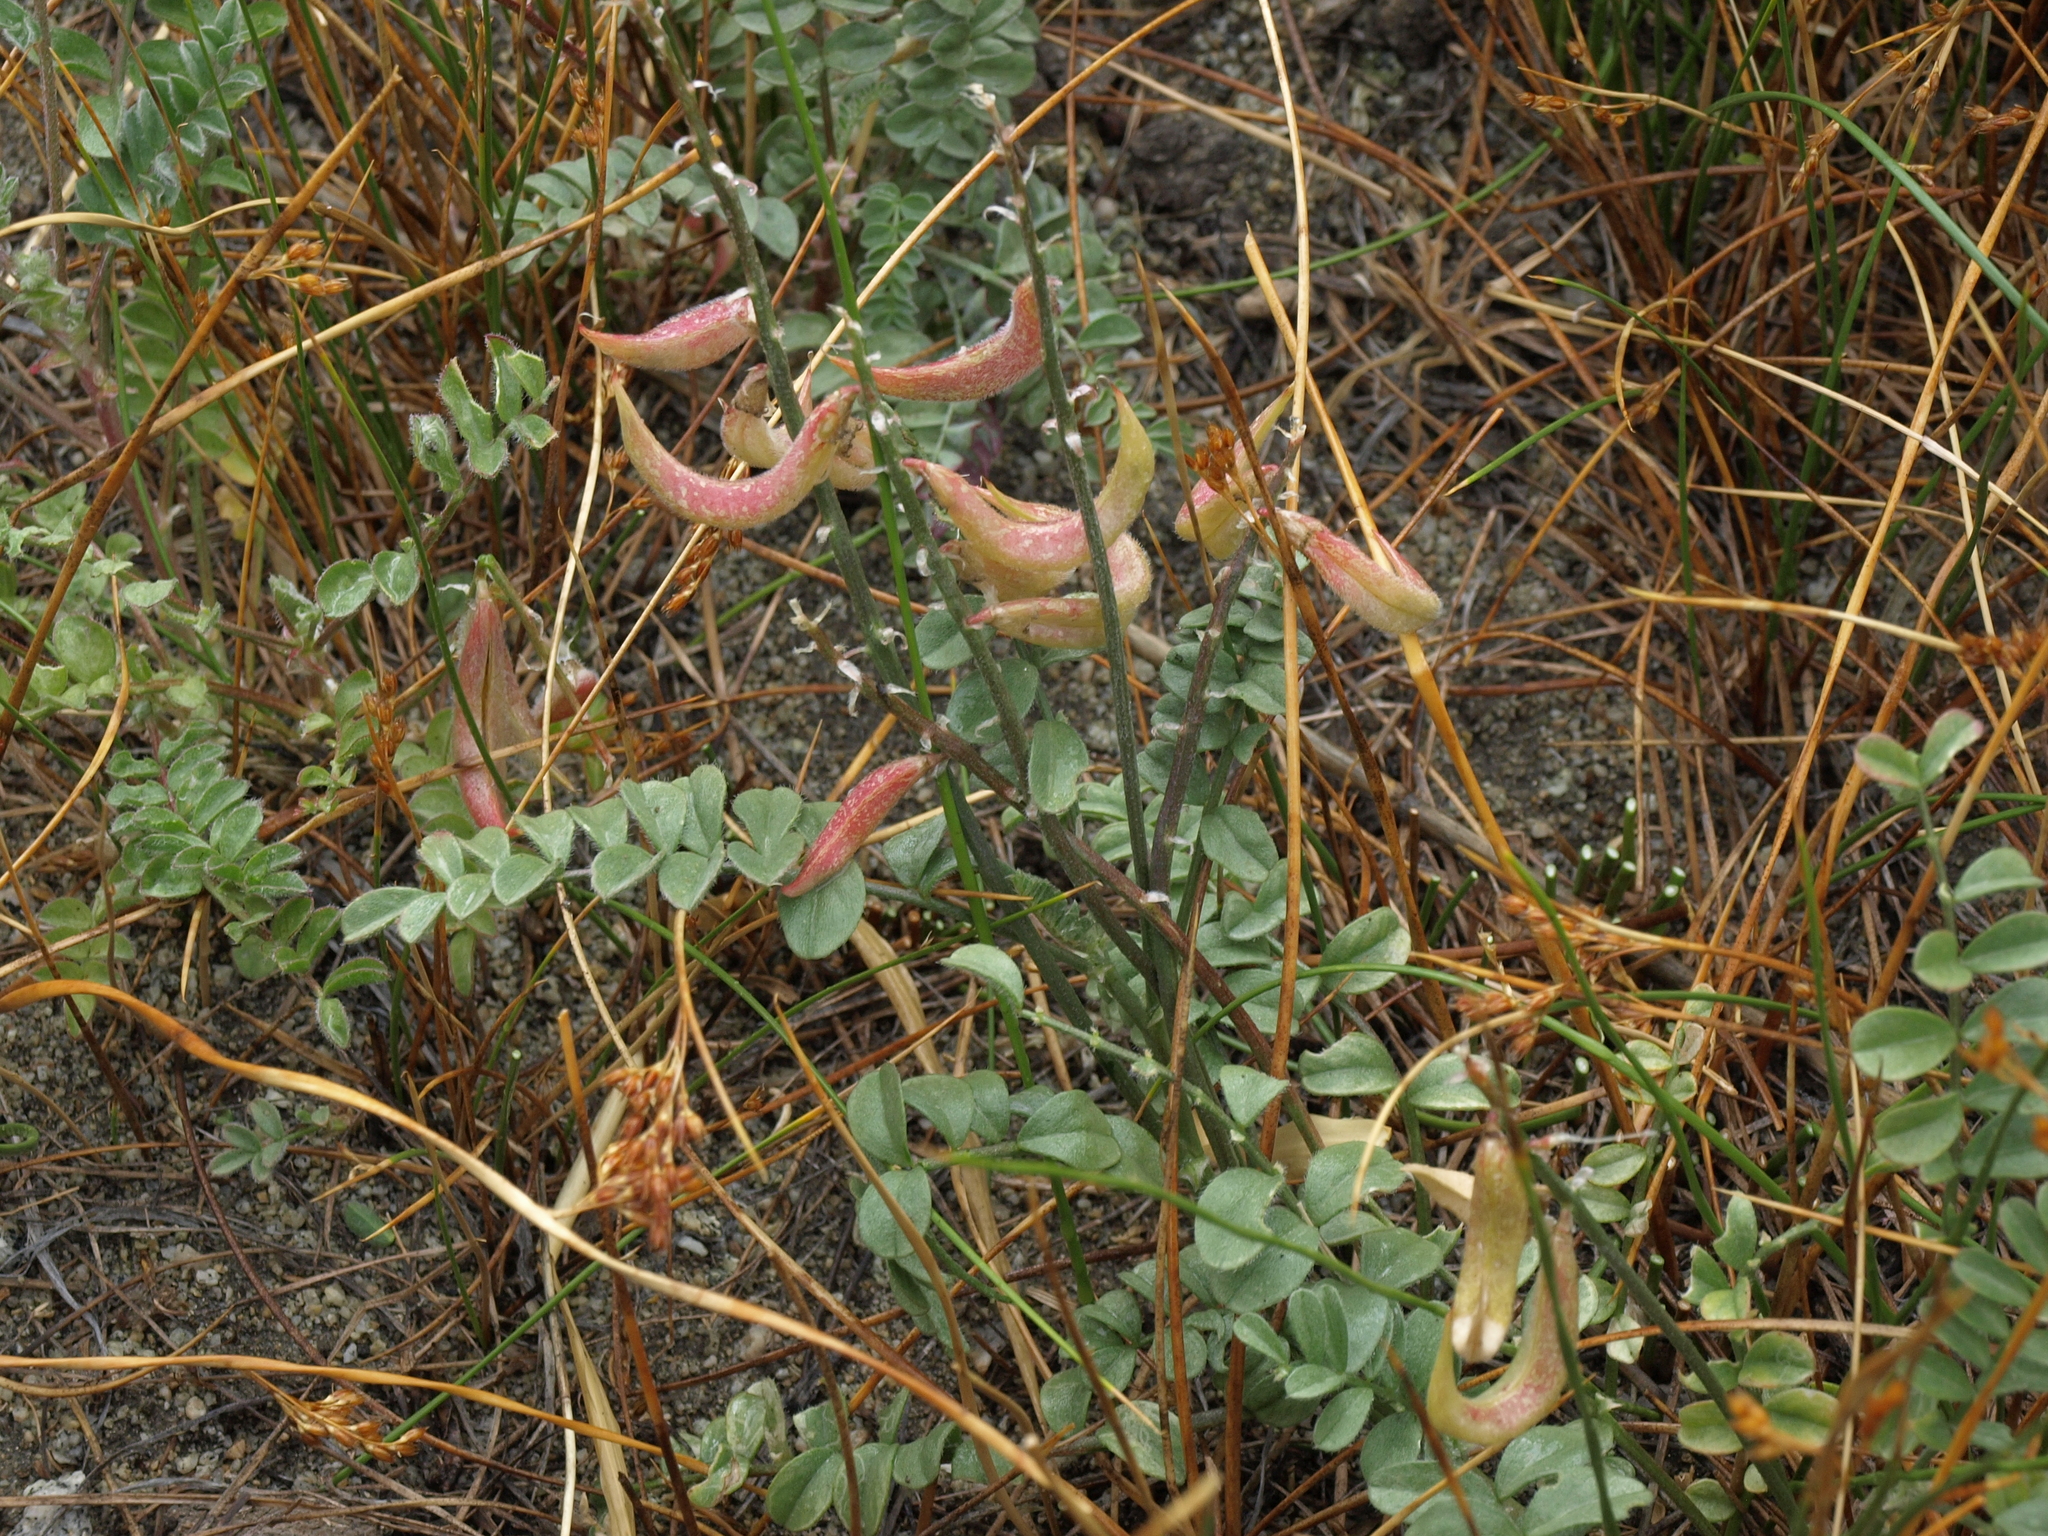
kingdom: Plantae
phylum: Tracheophyta
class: Magnoliopsida
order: Fabales
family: Fabaceae
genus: Astragalus
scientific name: Astragalus layneae
